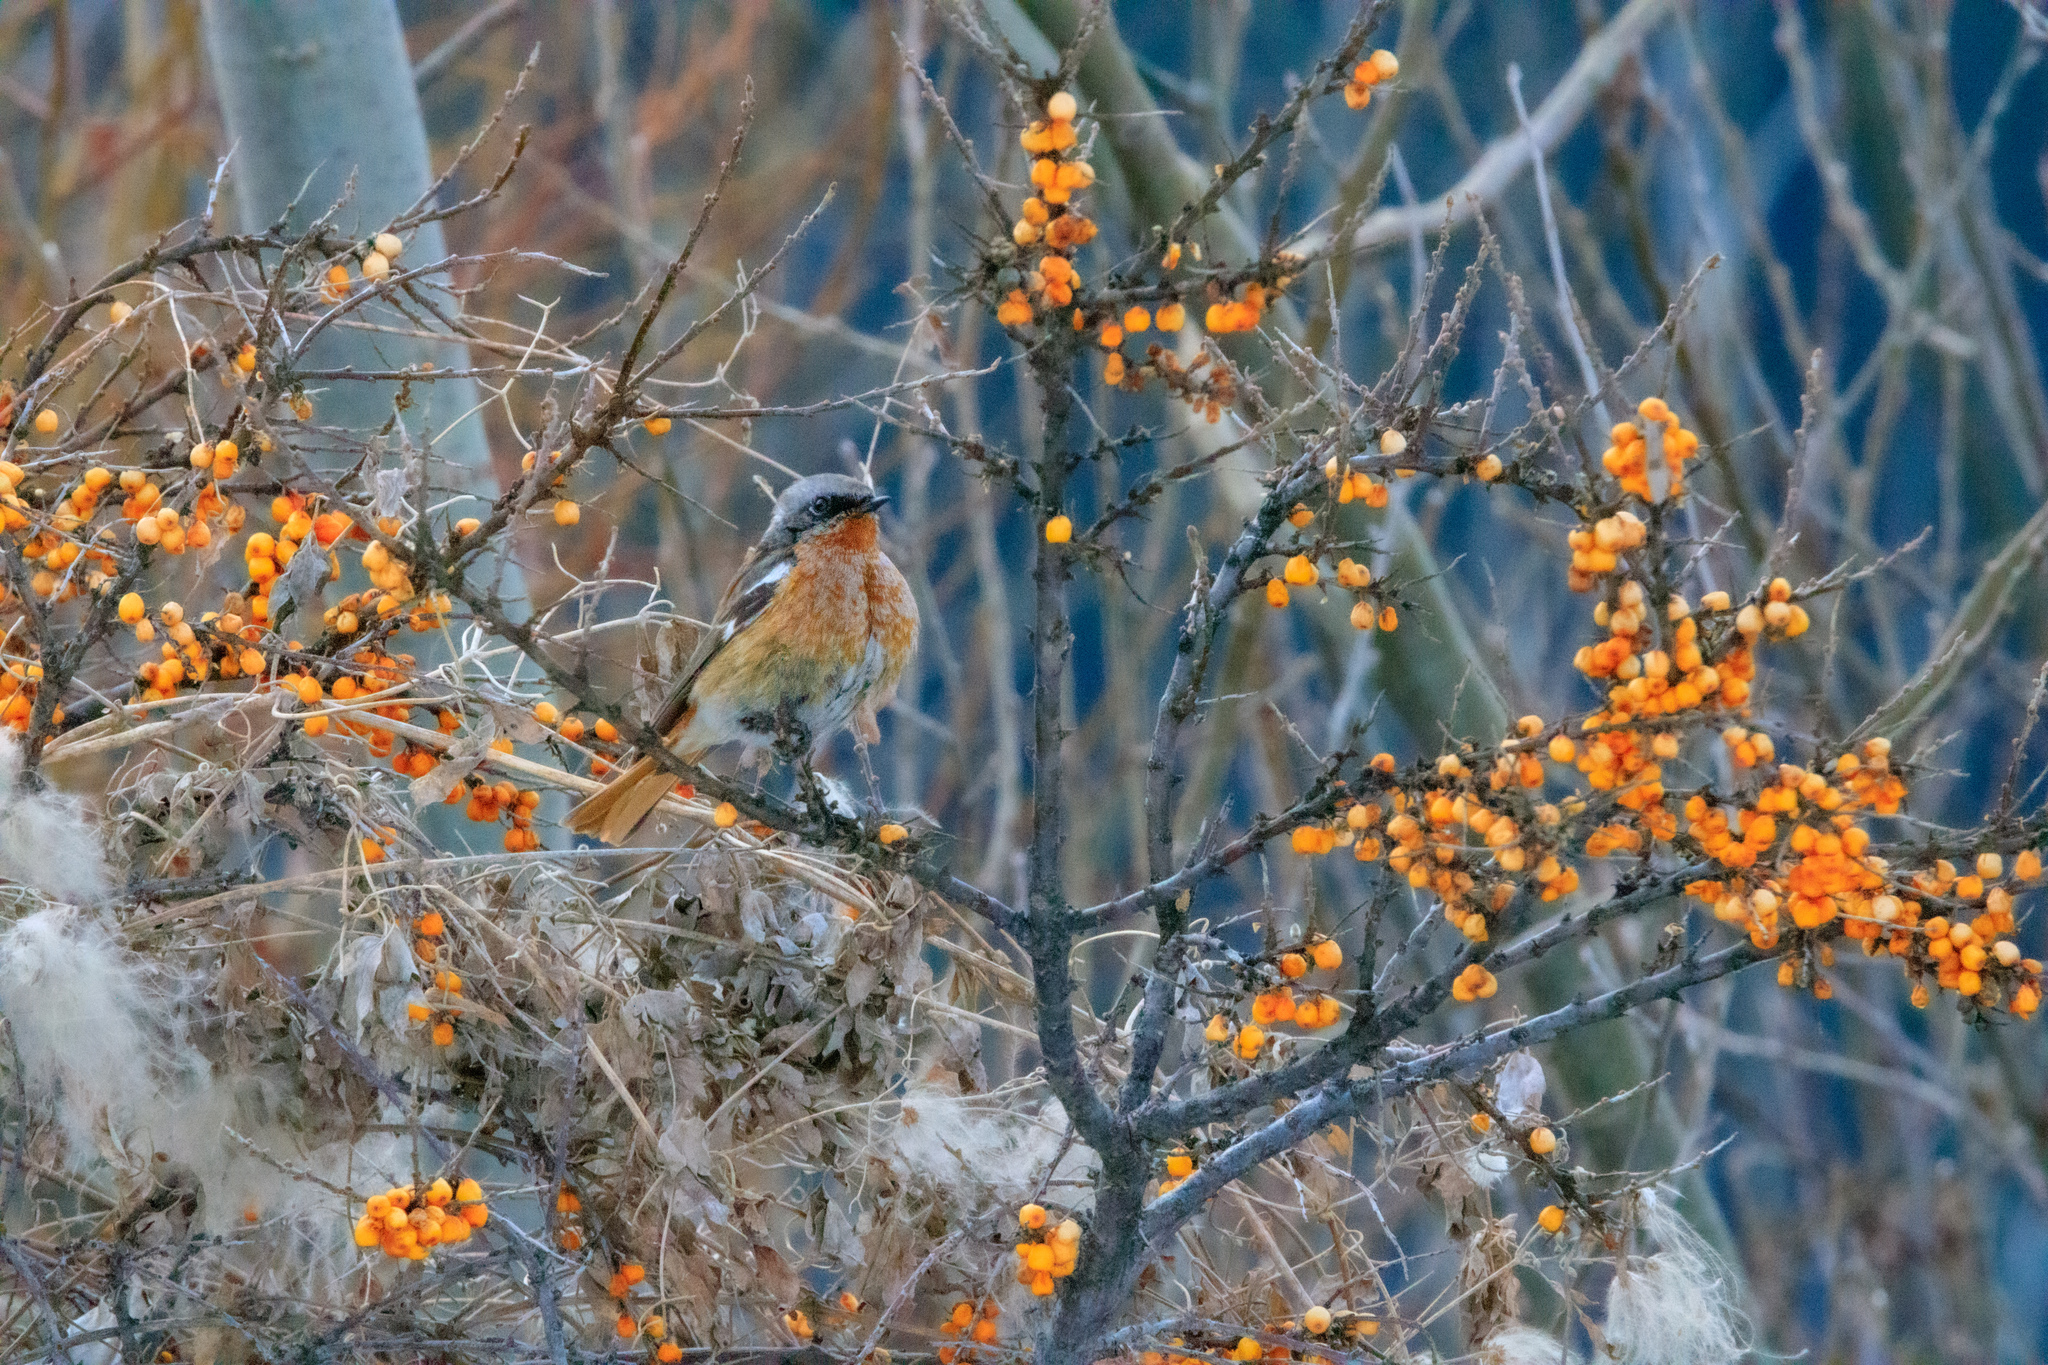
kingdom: Animalia
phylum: Chordata
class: Aves
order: Passeriformes
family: Muscicapidae
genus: Phoenicurus
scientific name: Phoenicurus erythronotus
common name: Eversmann's redstart
